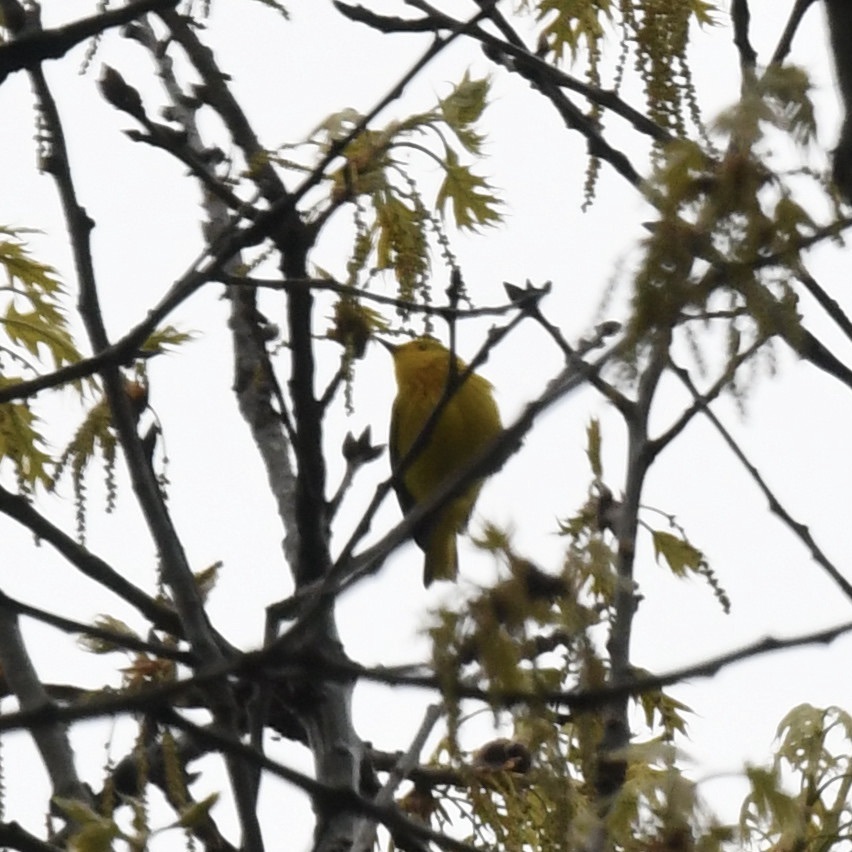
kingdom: Animalia
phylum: Chordata
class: Aves
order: Passeriformes
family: Parulidae
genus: Setophaga
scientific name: Setophaga petechia
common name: Yellow warbler
